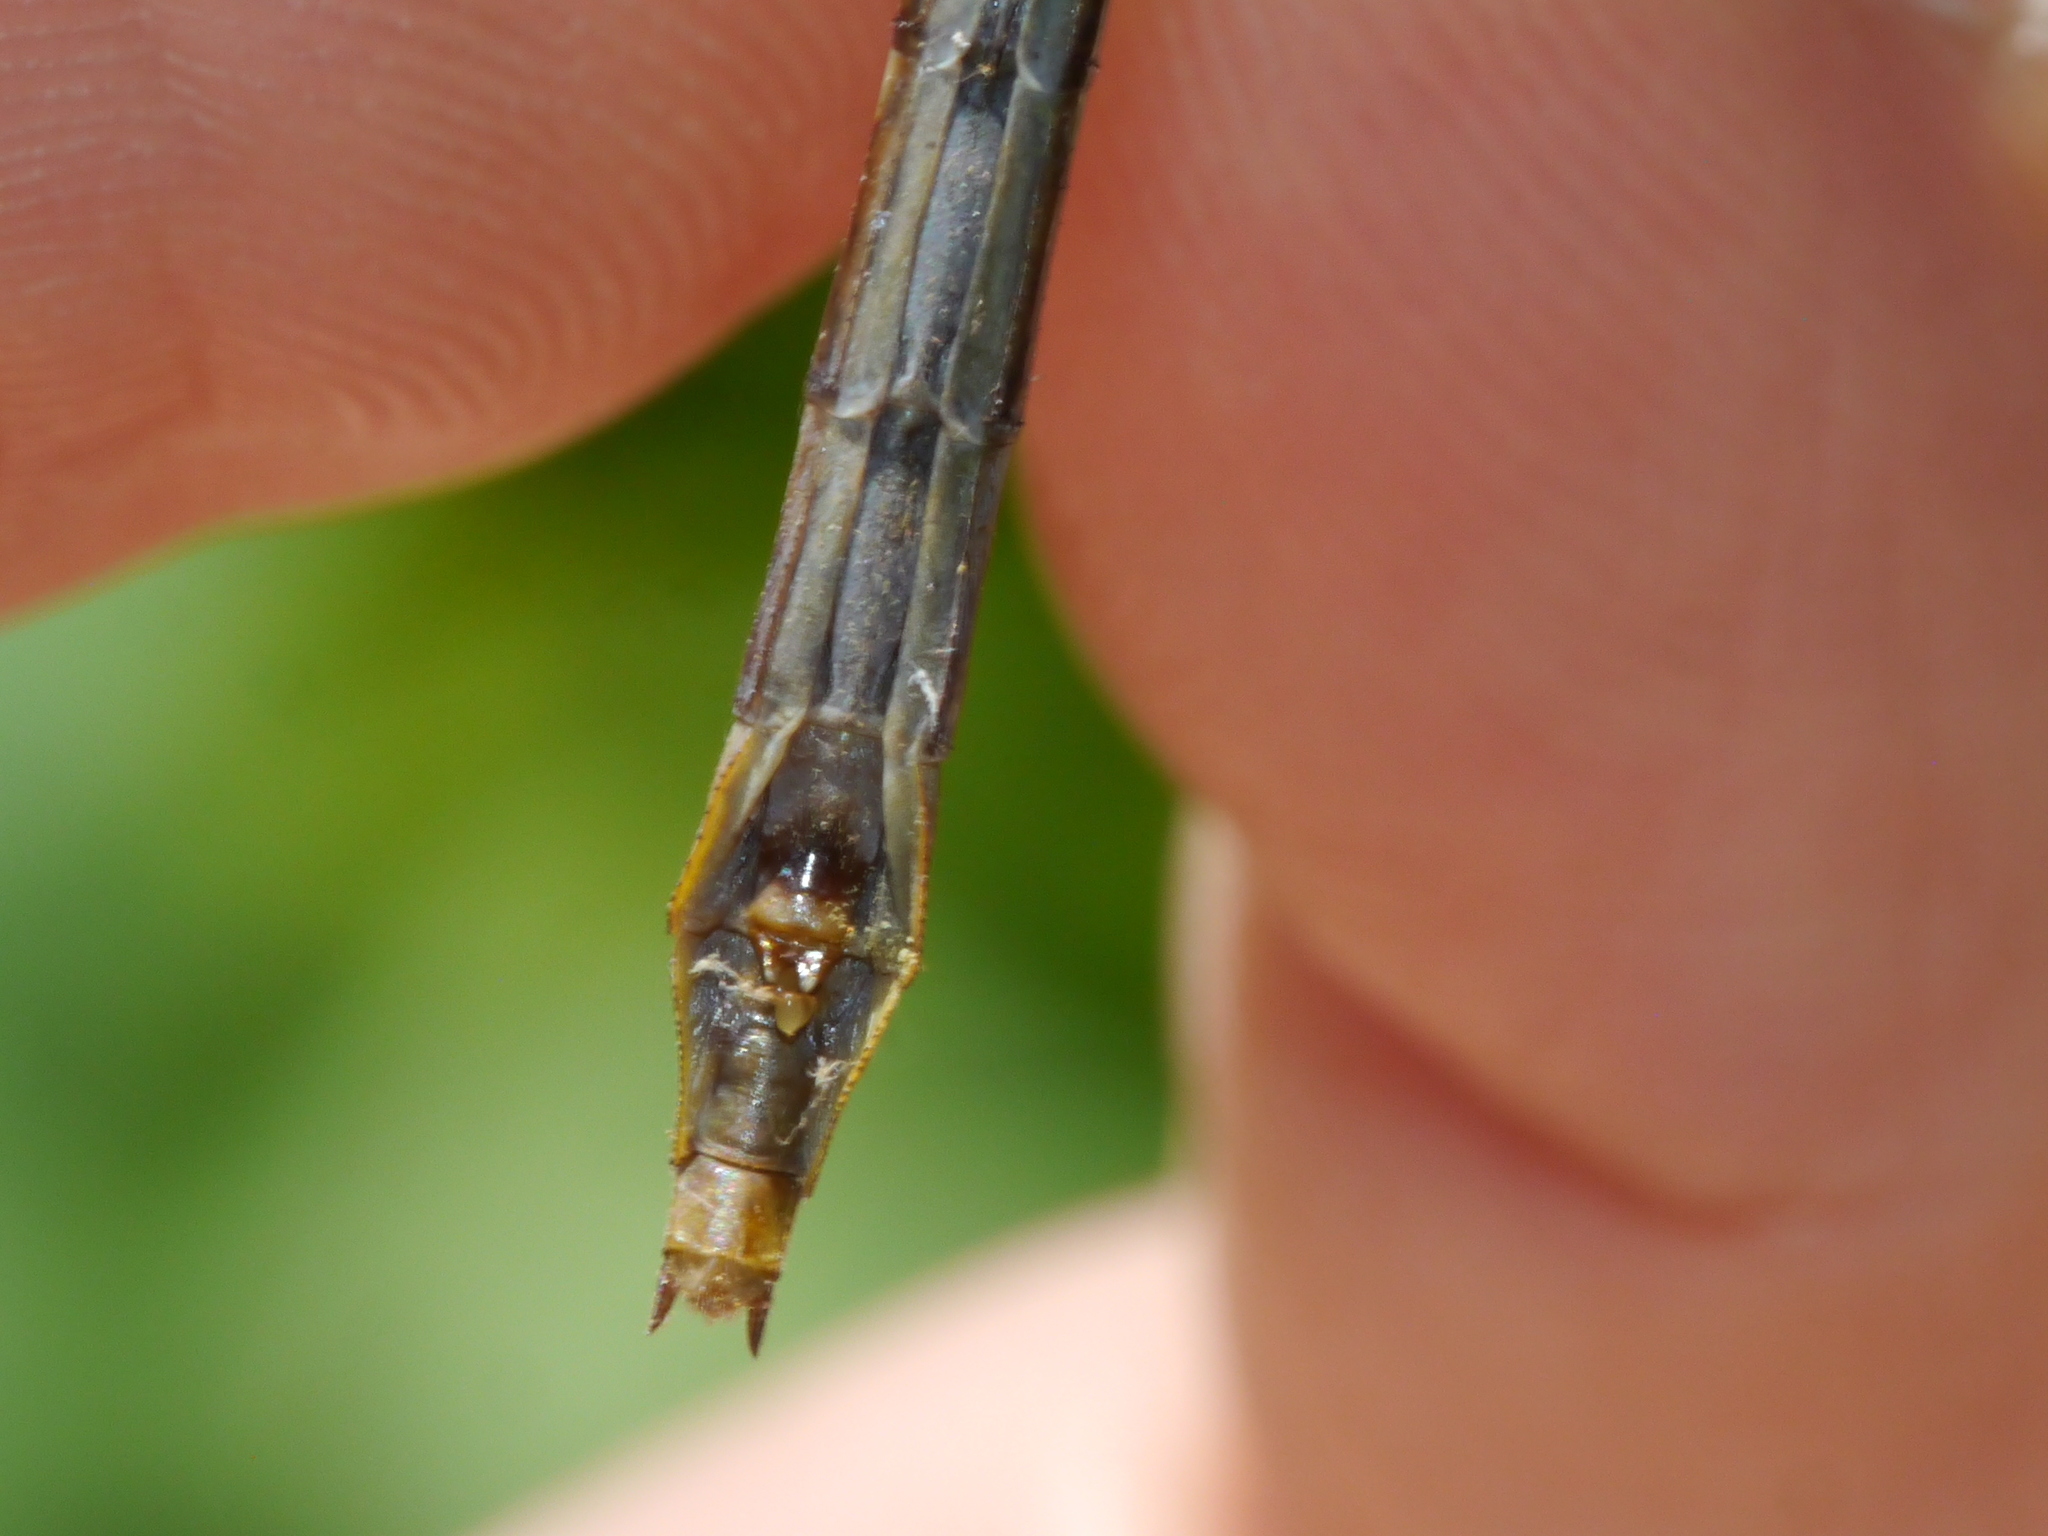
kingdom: Animalia
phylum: Arthropoda
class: Insecta
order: Odonata
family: Gomphidae
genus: Phanogomphus
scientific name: Phanogomphus exilis
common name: Lancet clubtail
